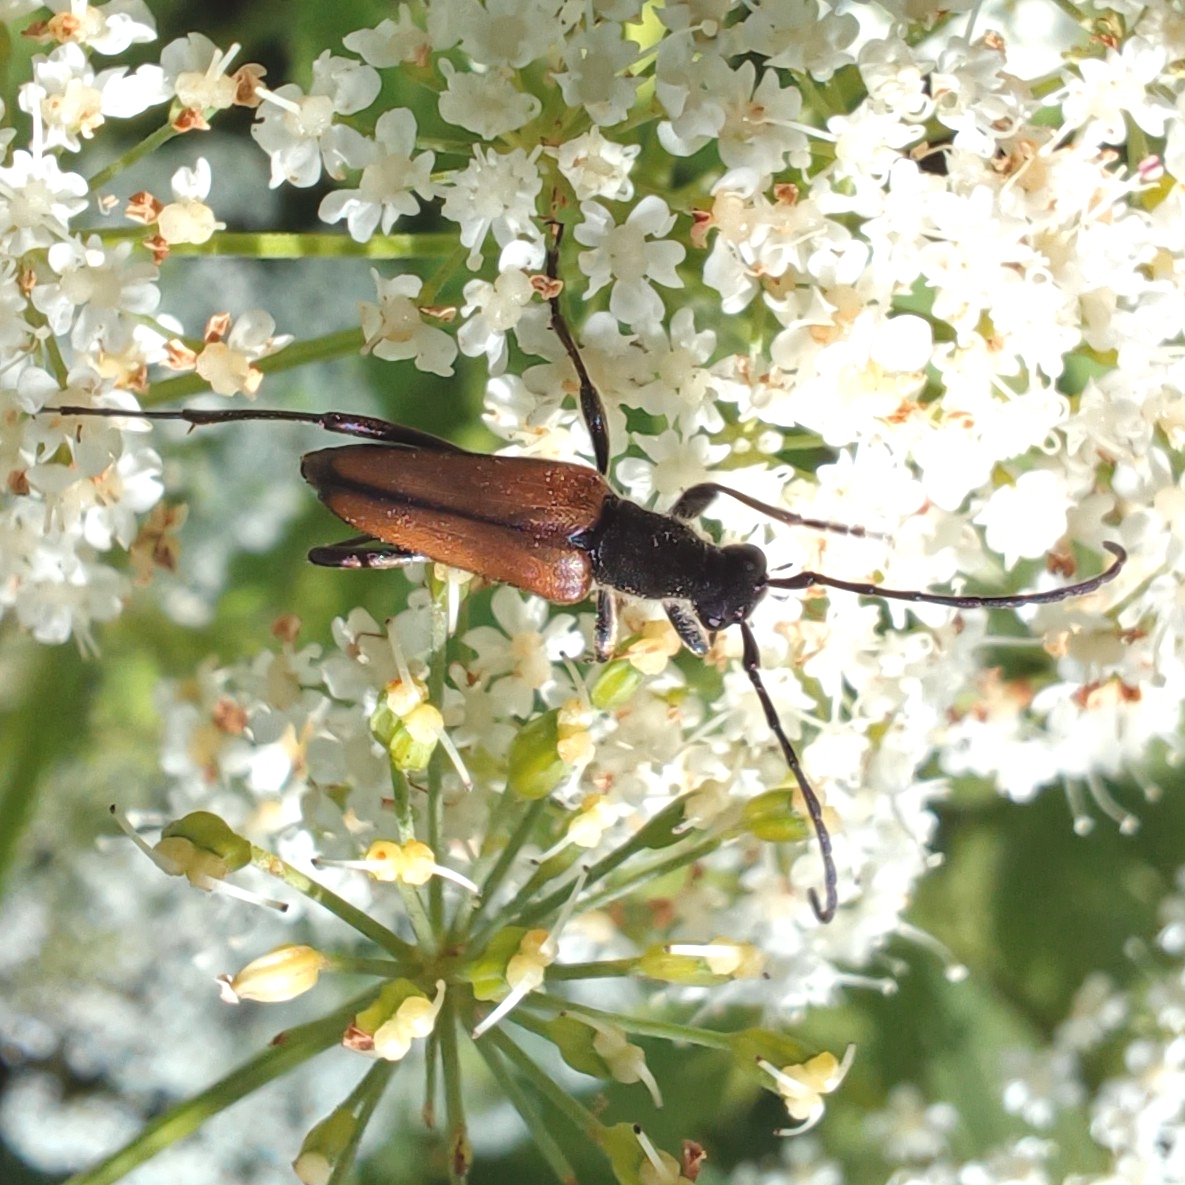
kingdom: Animalia
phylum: Arthropoda
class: Insecta
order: Coleoptera
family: Cerambycidae
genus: Anastrangalia
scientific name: Anastrangalia reyi
